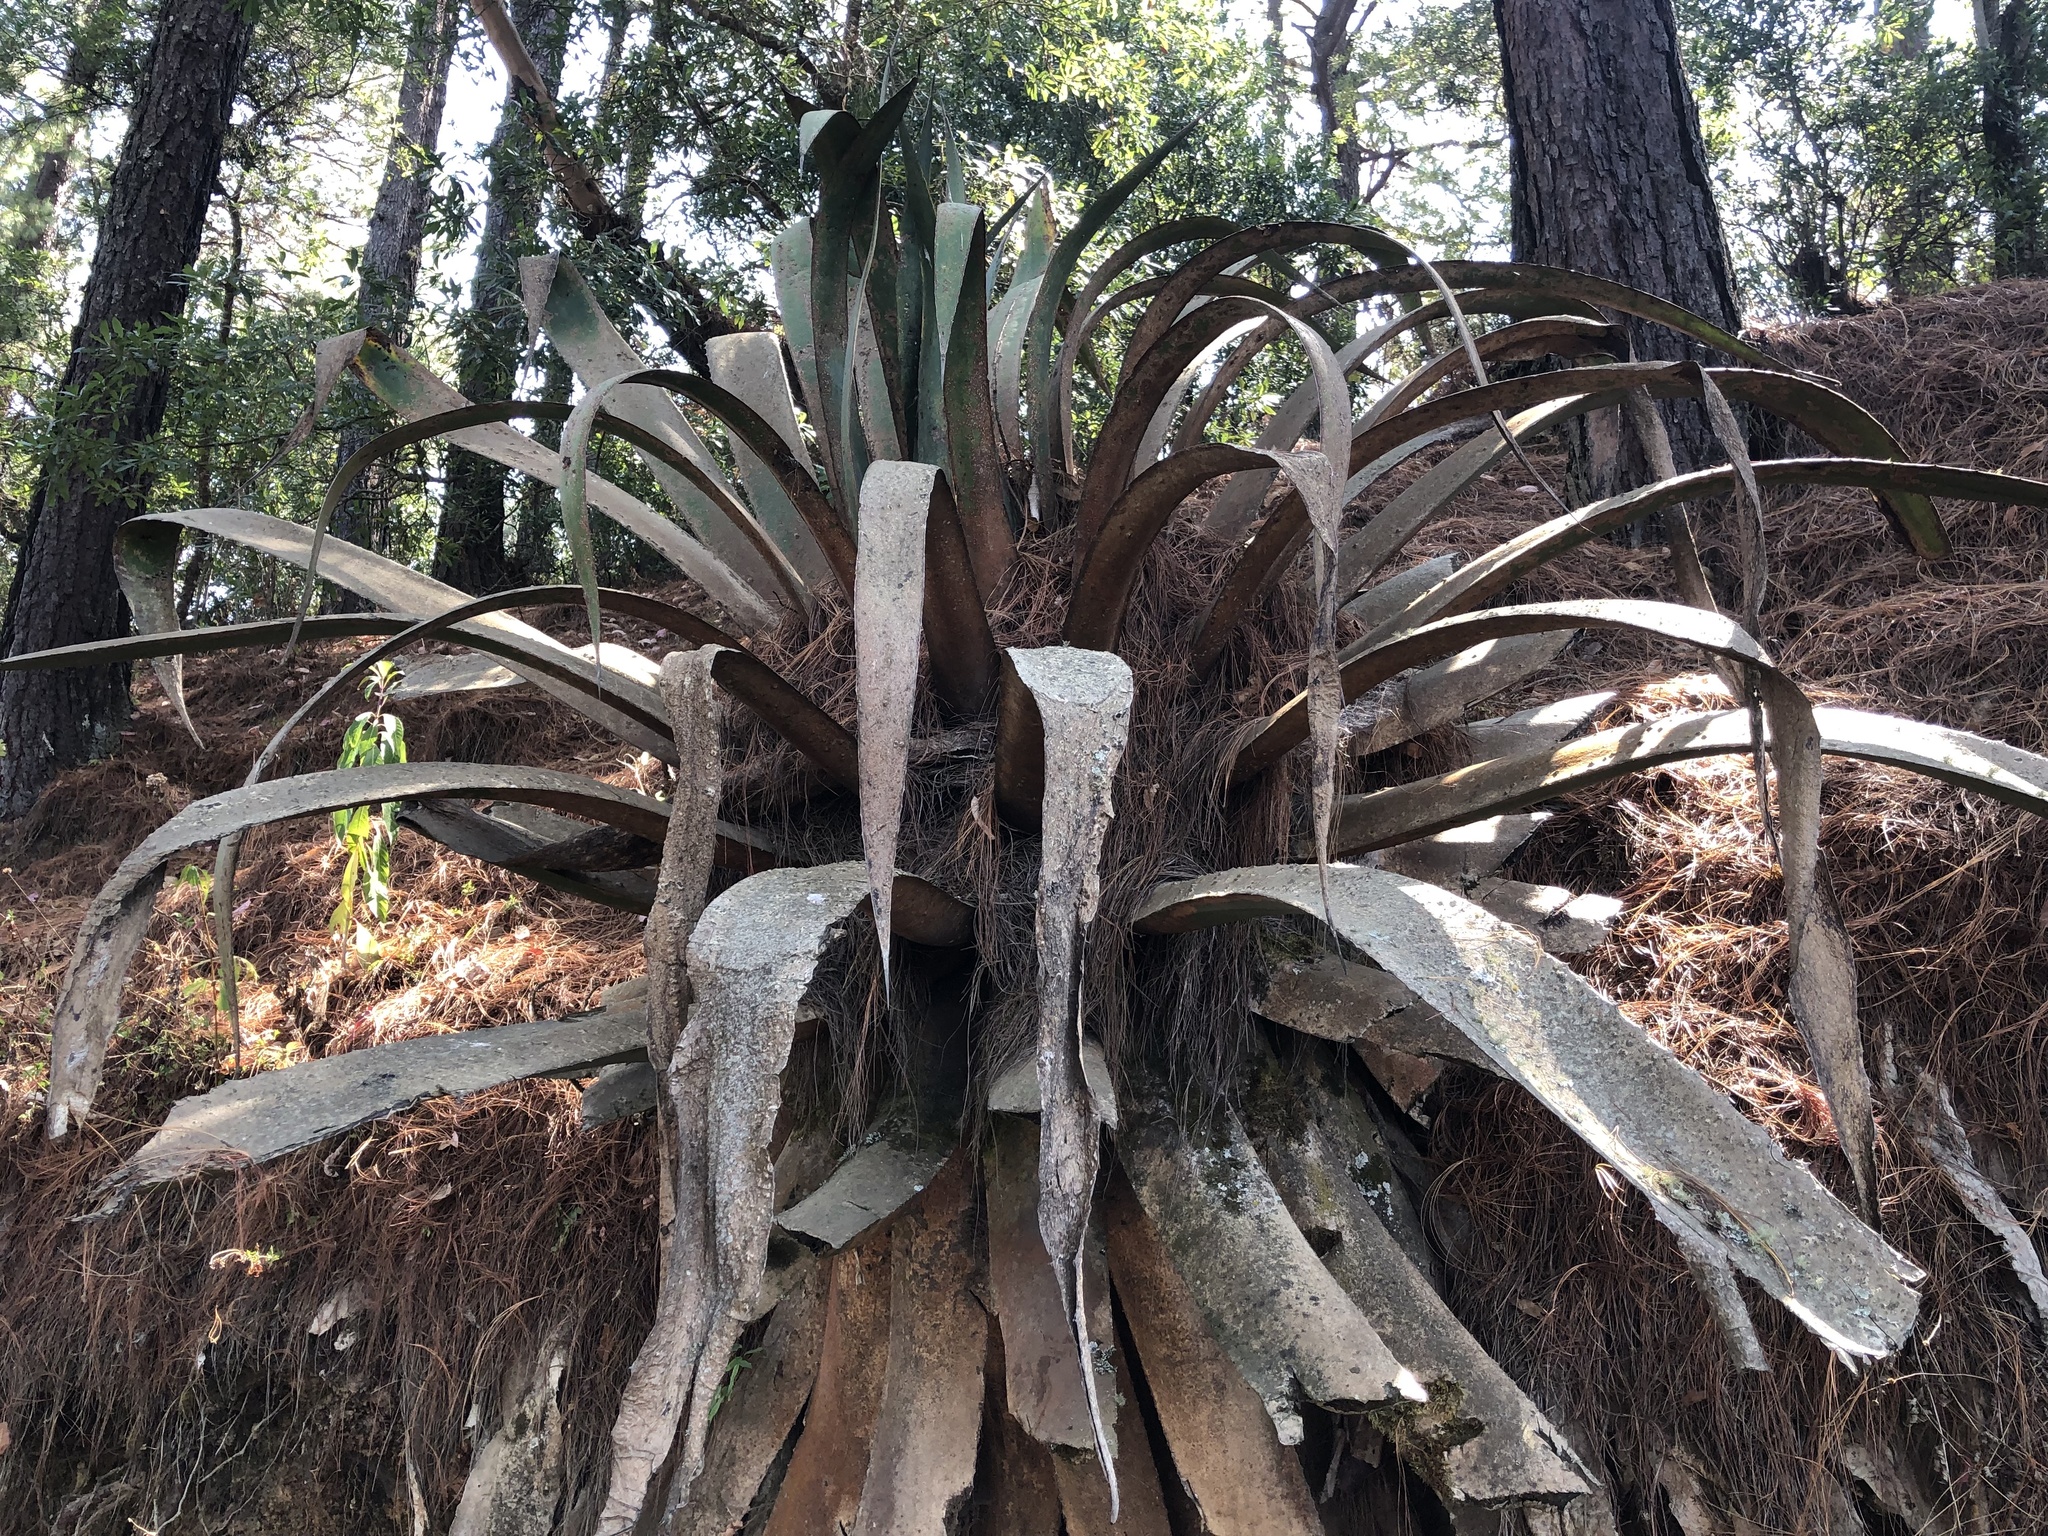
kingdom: Plantae
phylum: Tracheophyta
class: Liliopsida
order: Asparagales
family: Asparagaceae
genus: Agave
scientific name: Agave atrovirens
